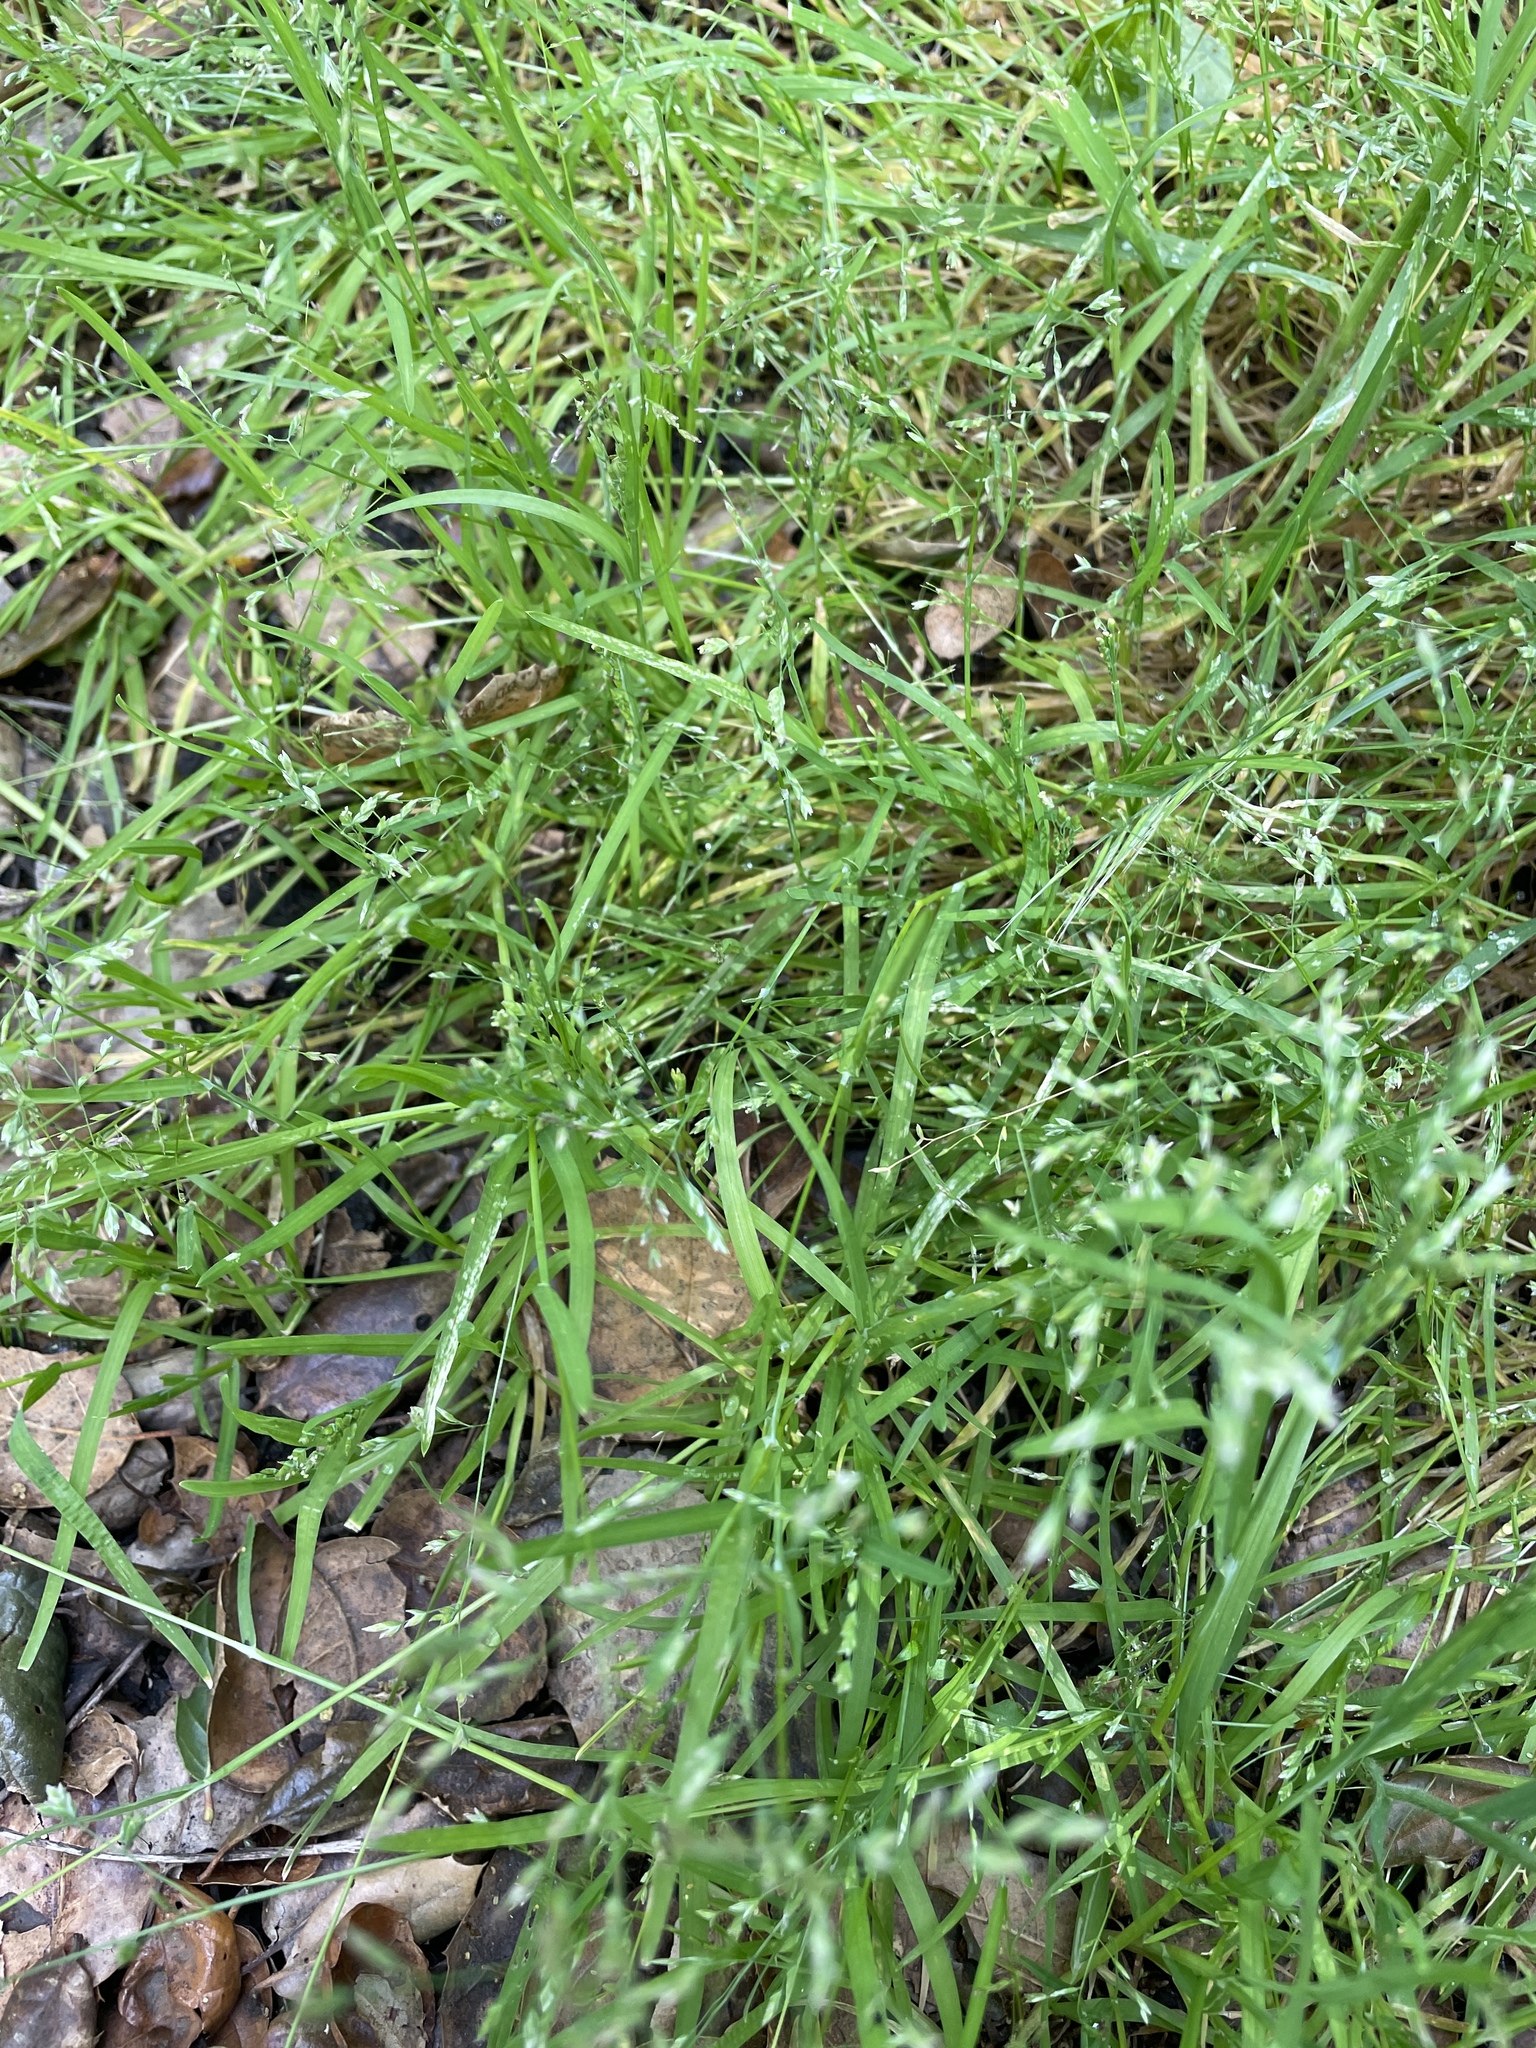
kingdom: Plantae
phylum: Tracheophyta
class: Liliopsida
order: Poales
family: Poaceae
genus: Poa
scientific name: Poa annua
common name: Annual bluegrass
